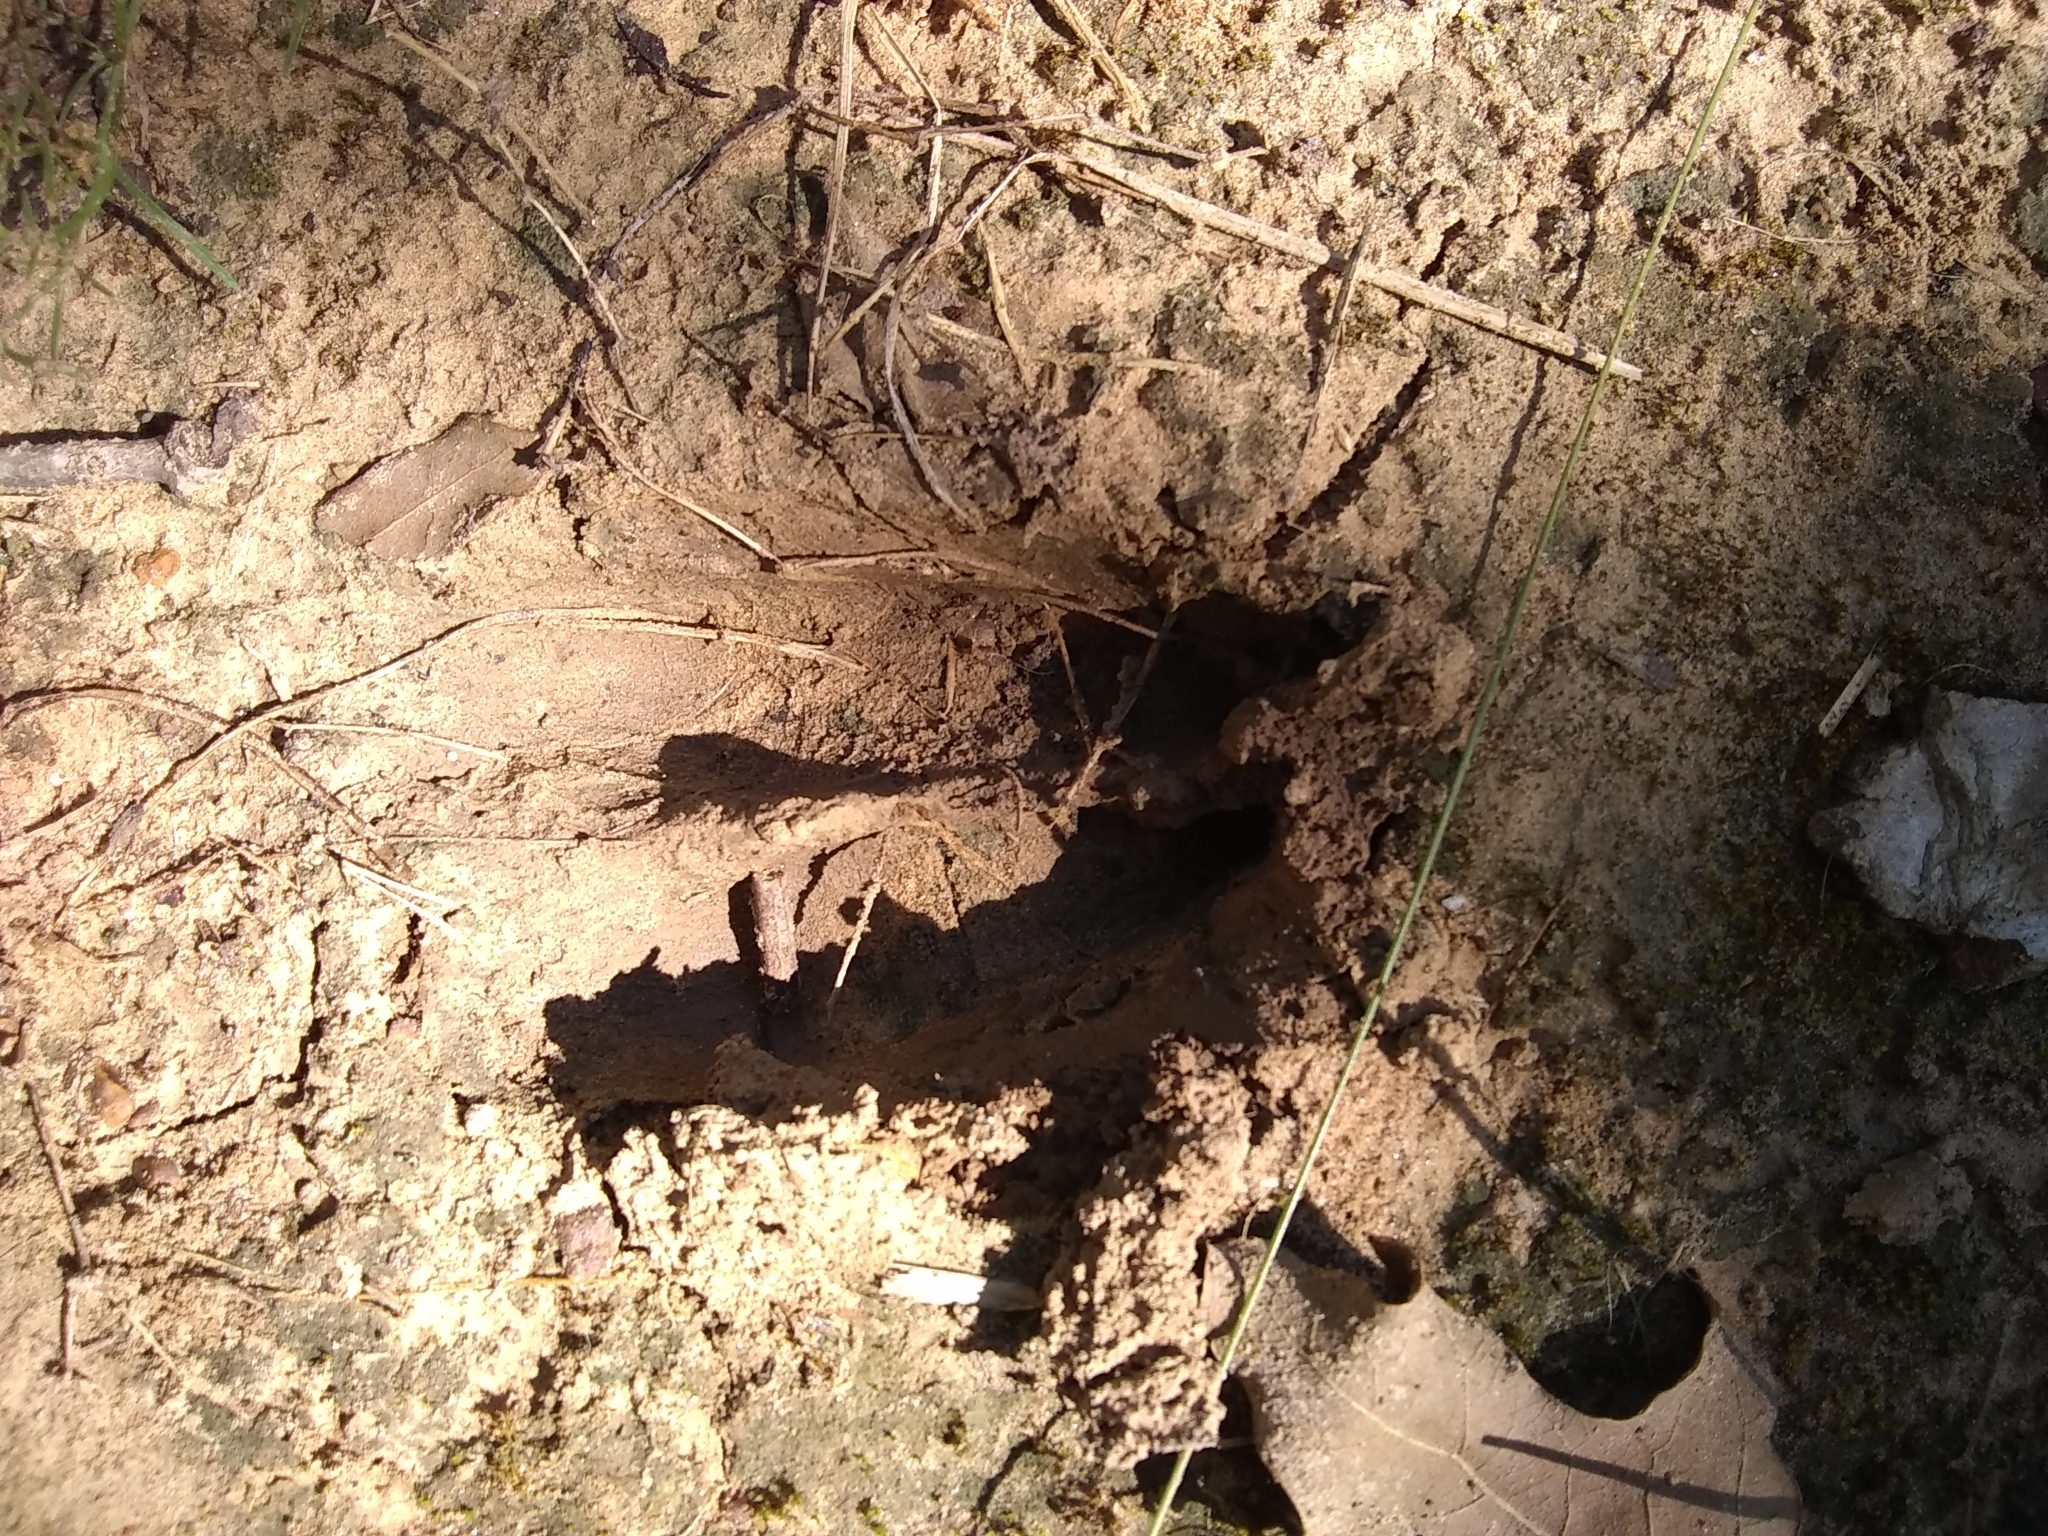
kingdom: Animalia
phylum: Chordata
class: Mammalia
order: Artiodactyla
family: Cervidae
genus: Odocoileus
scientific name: Odocoileus virginianus
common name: White-tailed deer
